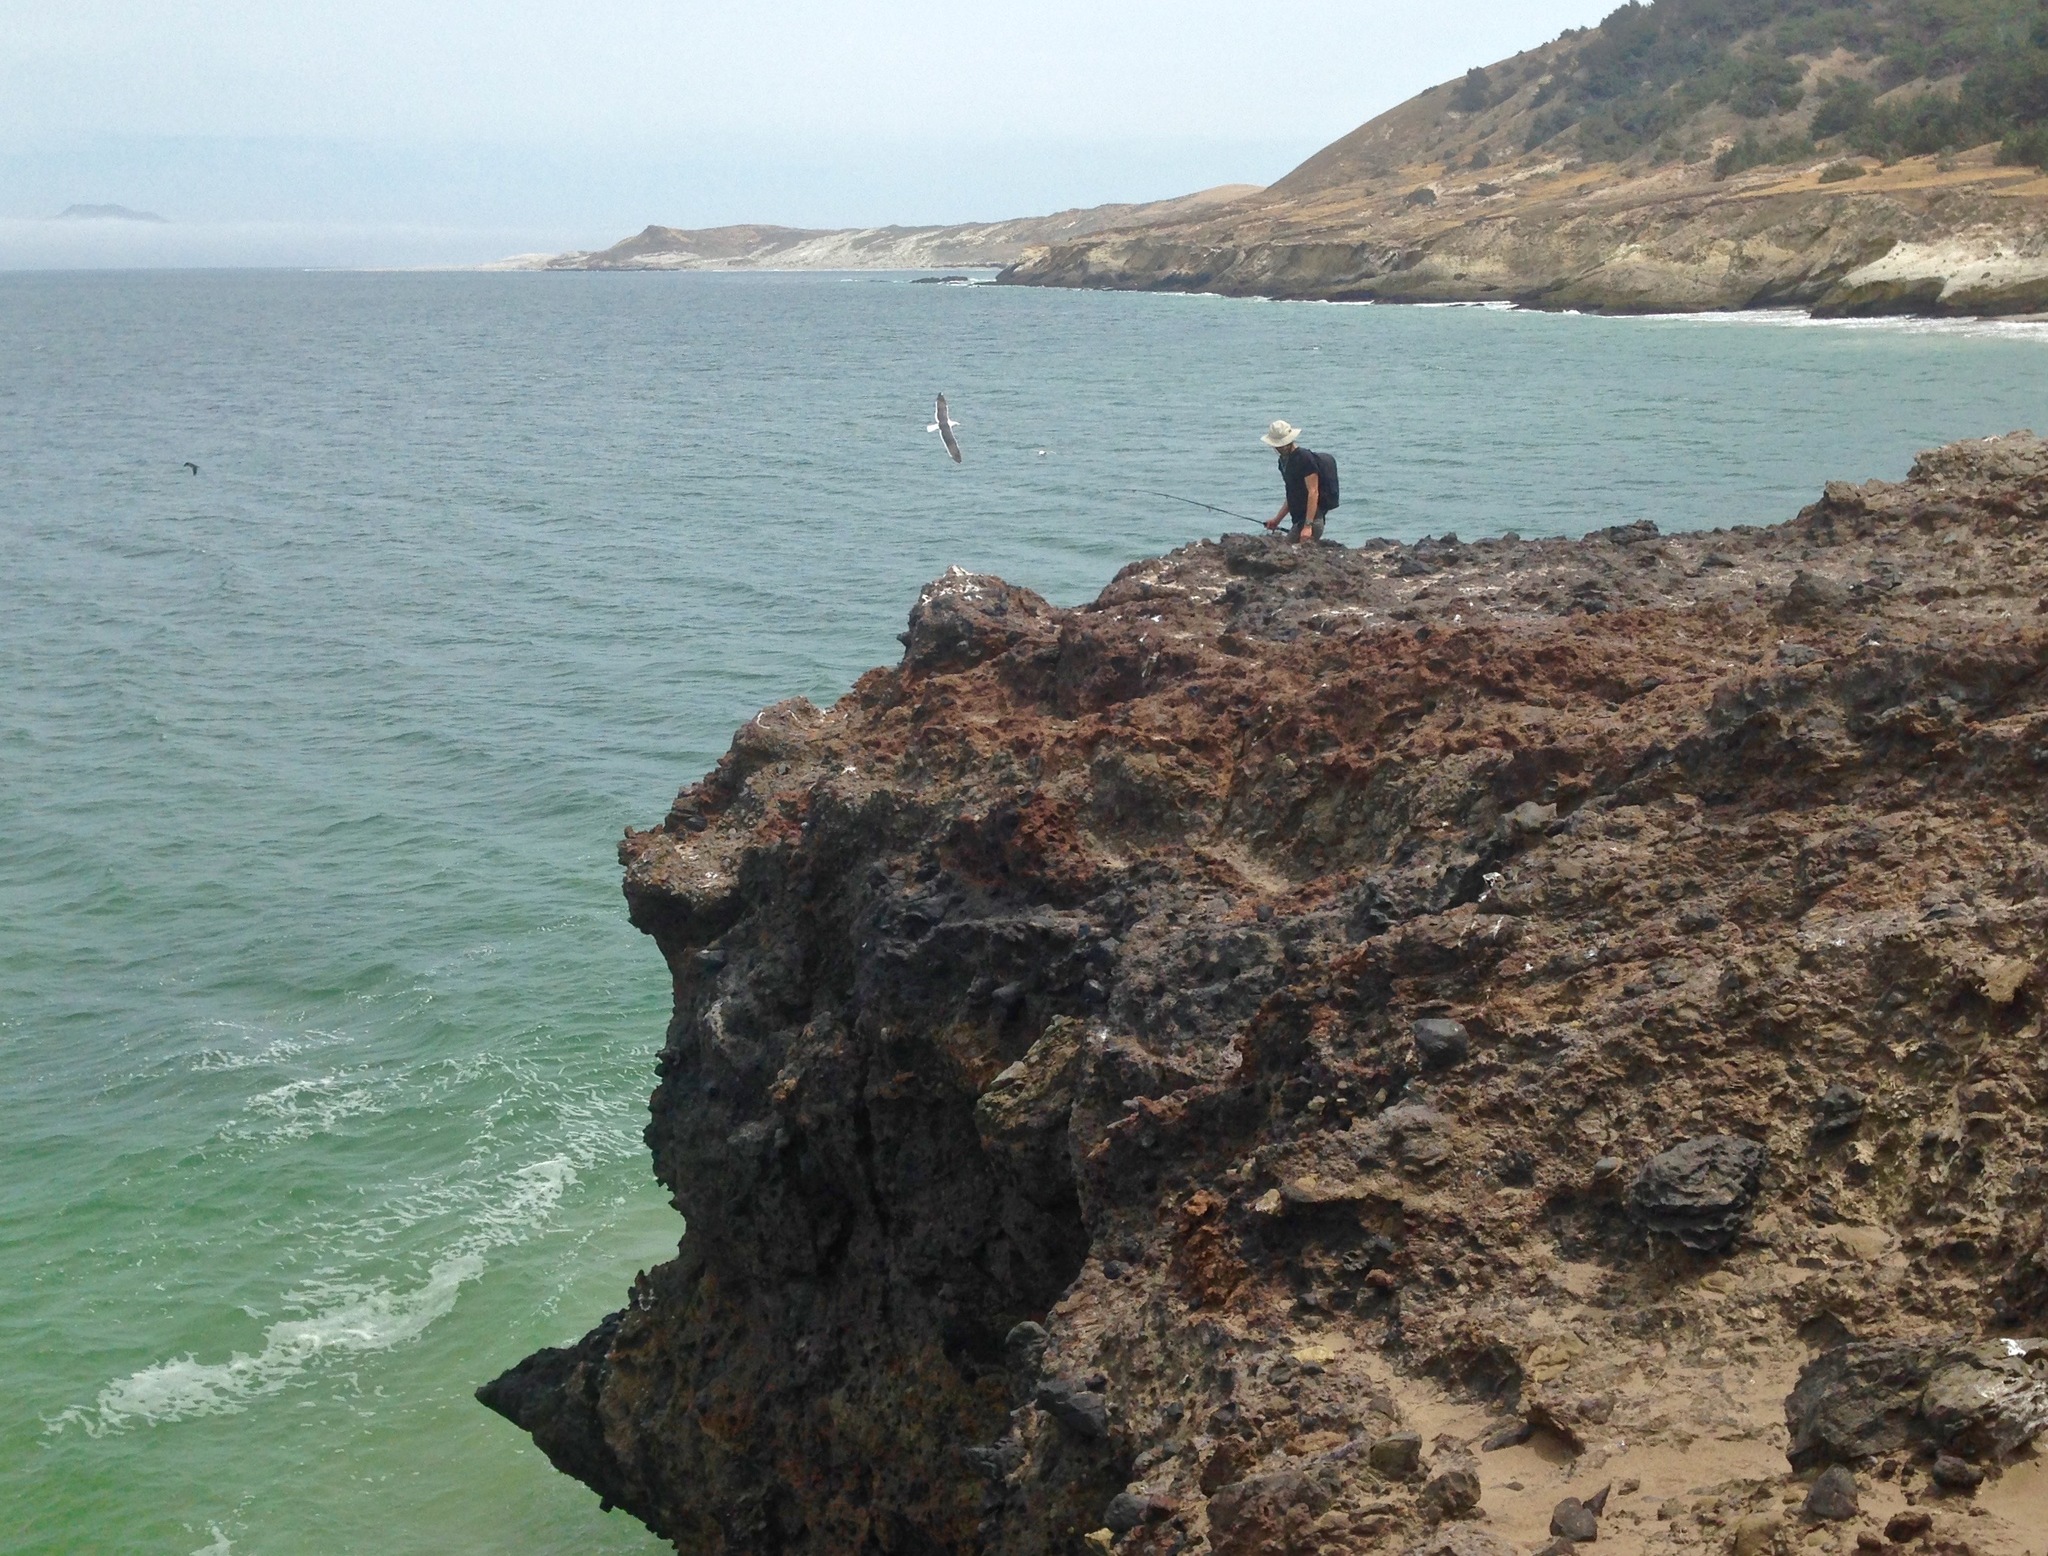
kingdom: Animalia
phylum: Chordata
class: Aves
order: Charadriiformes
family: Laridae
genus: Larus
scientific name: Larus occidentalis
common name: Western gull
